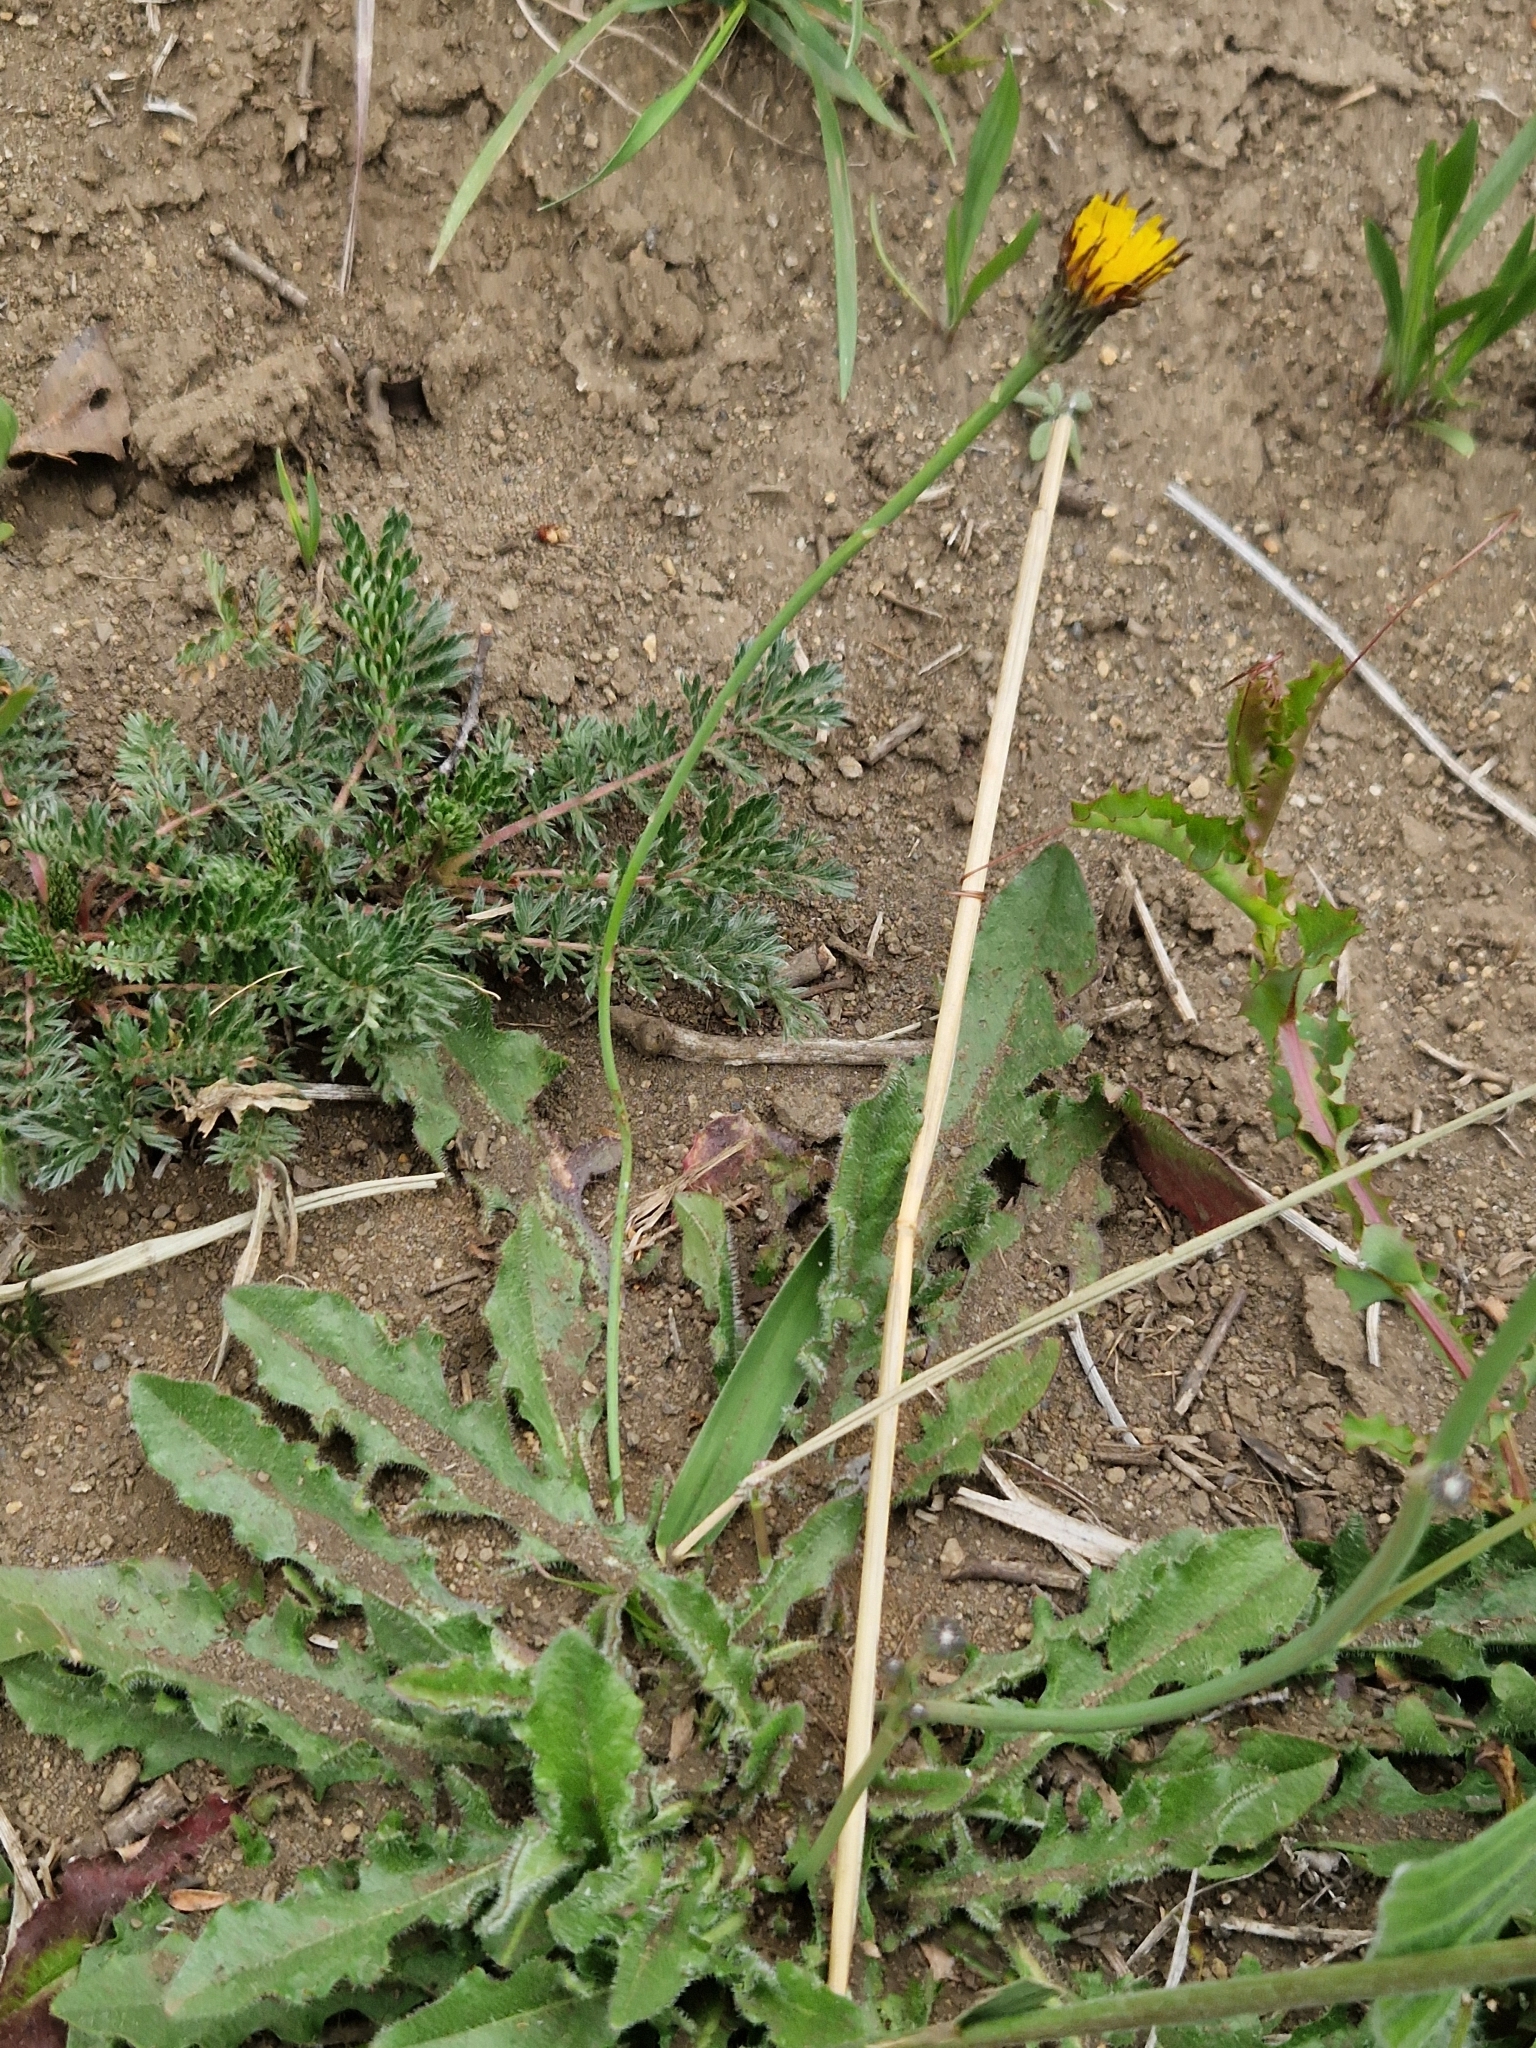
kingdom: Plantae
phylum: Tracheophyta
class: Magnoliopsida
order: Asterales
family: Asteraceae
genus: Hypochaeris
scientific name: Hypochaeris radicata
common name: Flatweed
